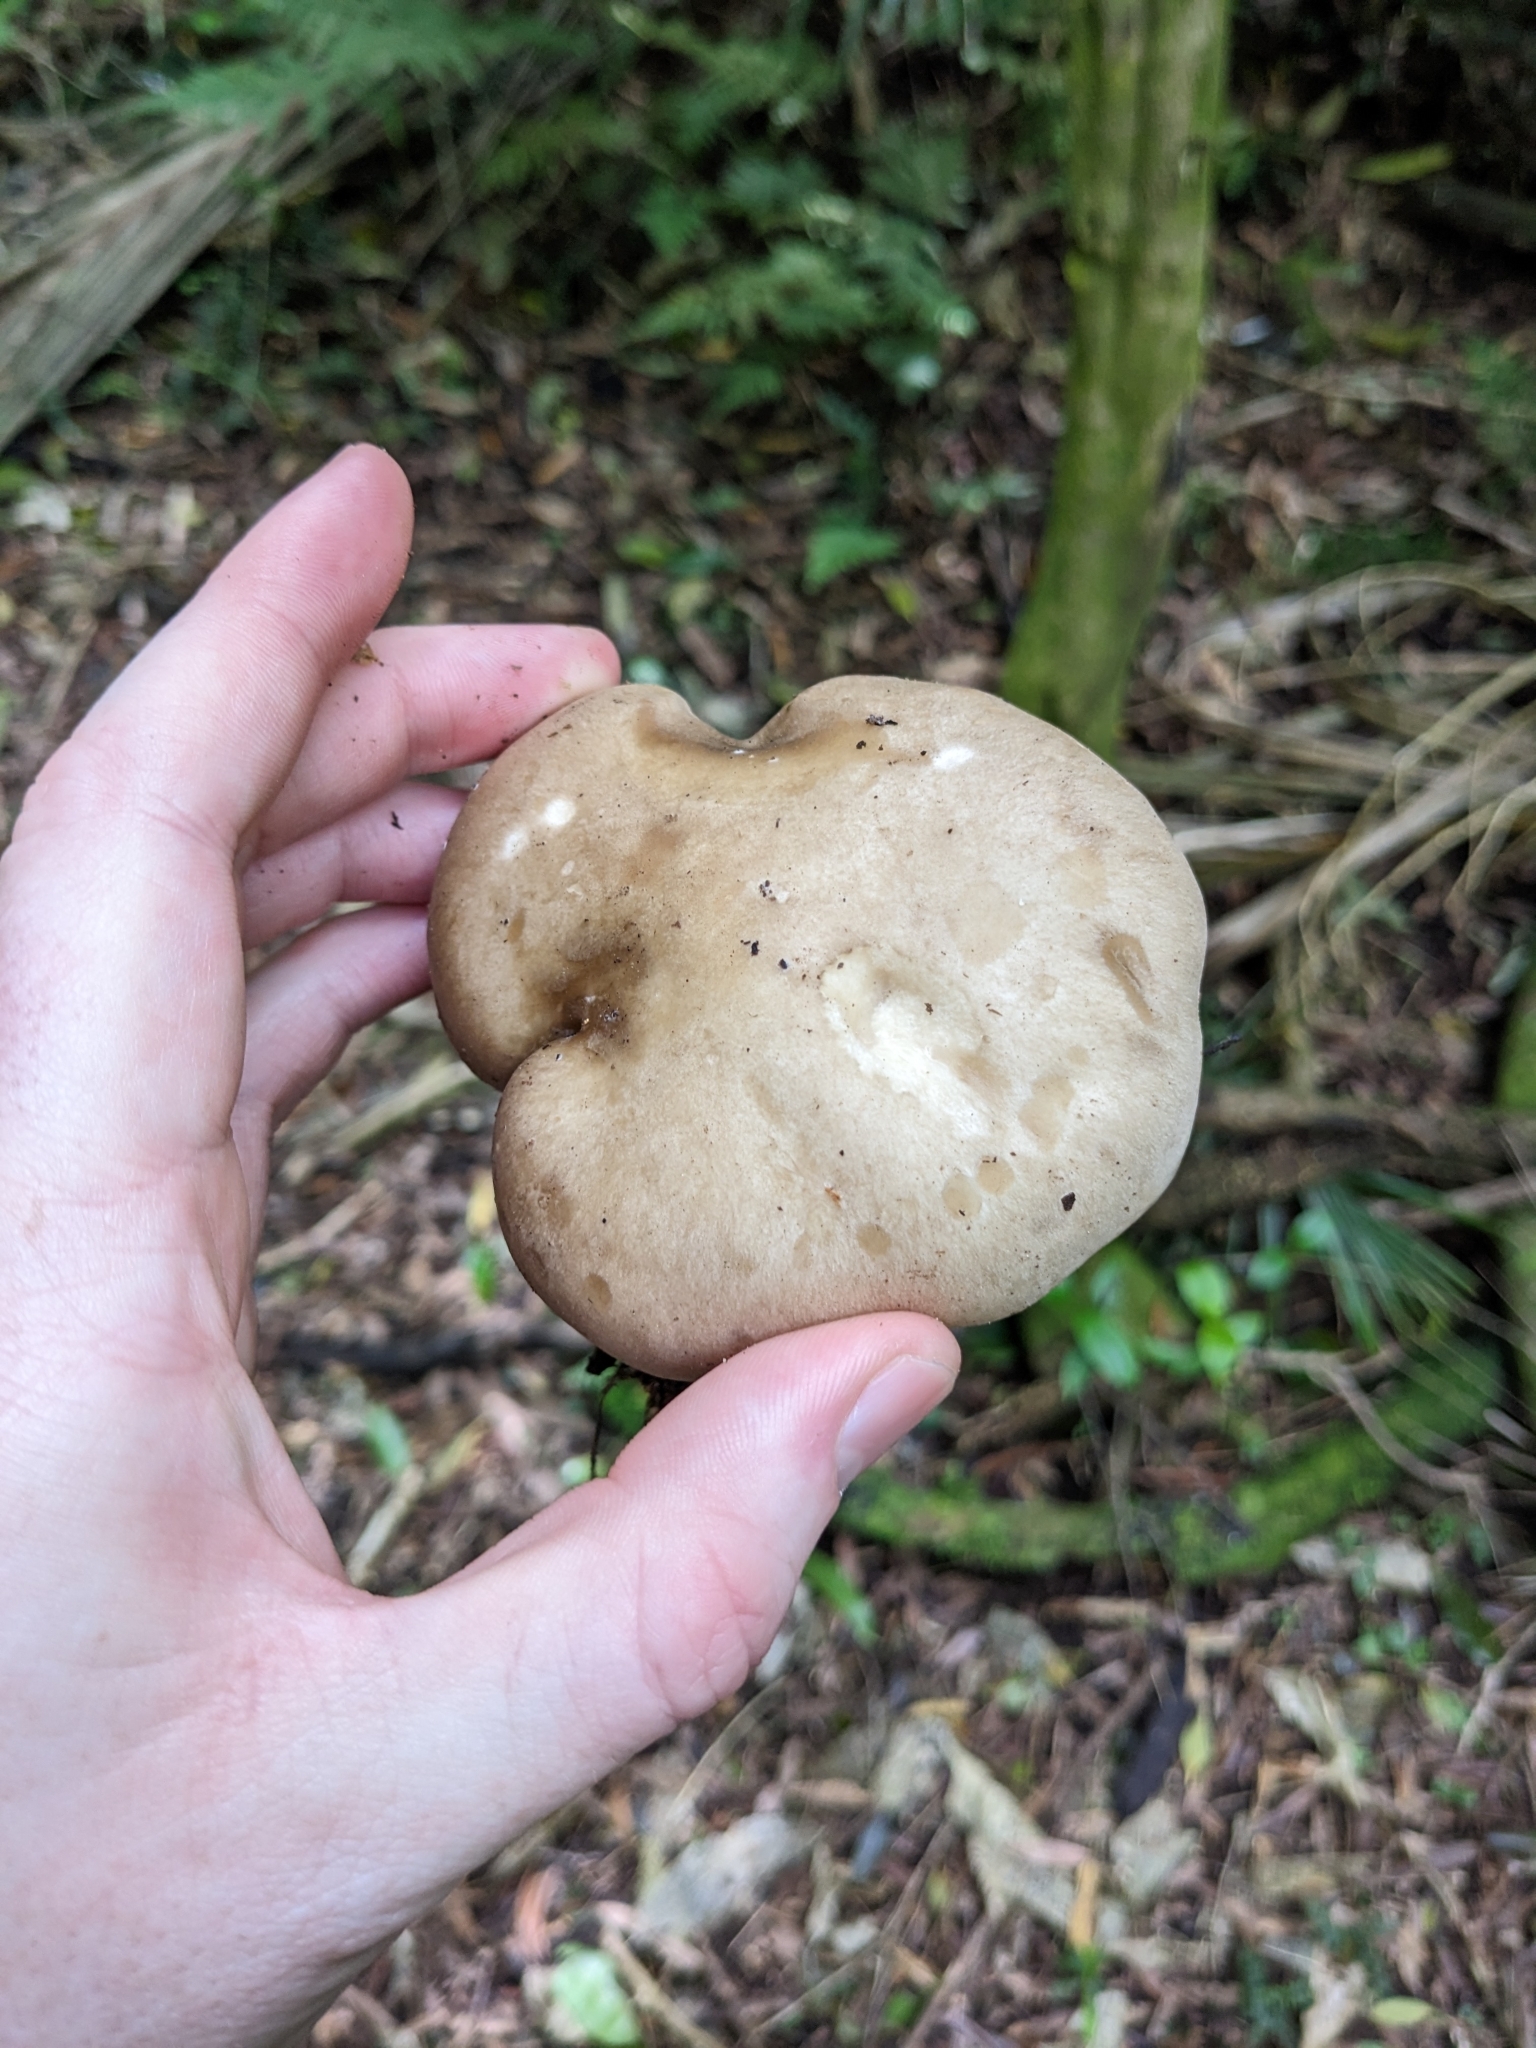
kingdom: Fungi
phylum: Basidiomycota
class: Agaricomycetes
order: Agaricales
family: Tricholomataceae
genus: Lepista
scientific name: Lepista luscina
